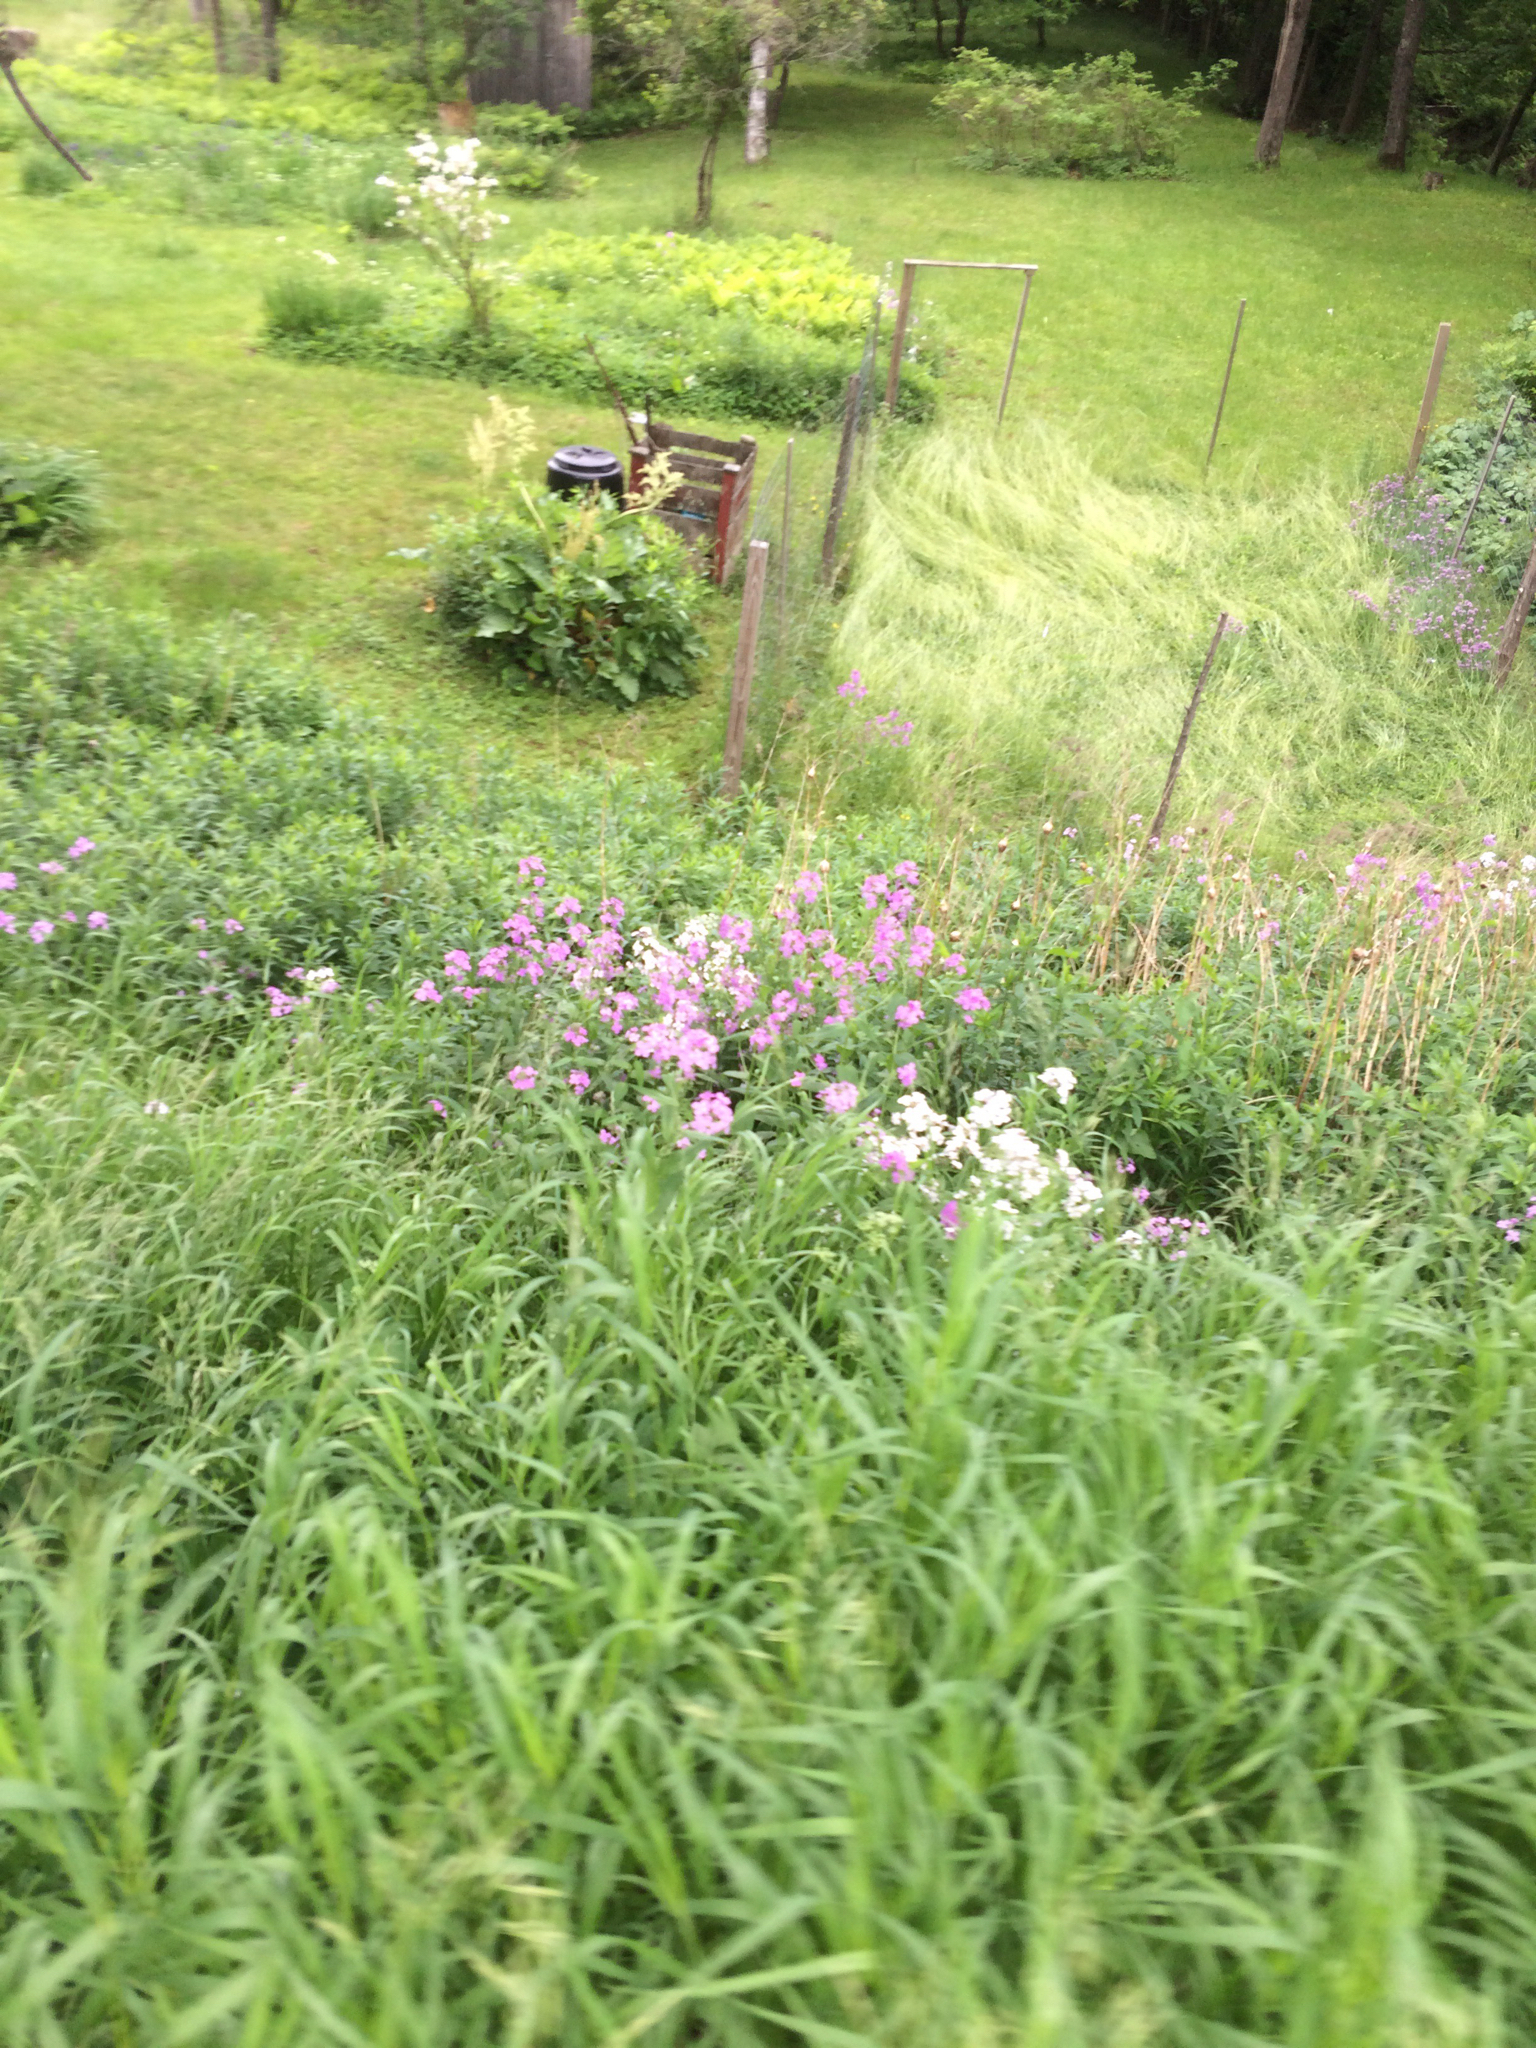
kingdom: Plantae
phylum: Tracheophyta
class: Magnoliopsida
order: Brassicales
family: Brassicaceae
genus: Hesperis
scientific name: Hesperis matronalis
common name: Dame's-violet
